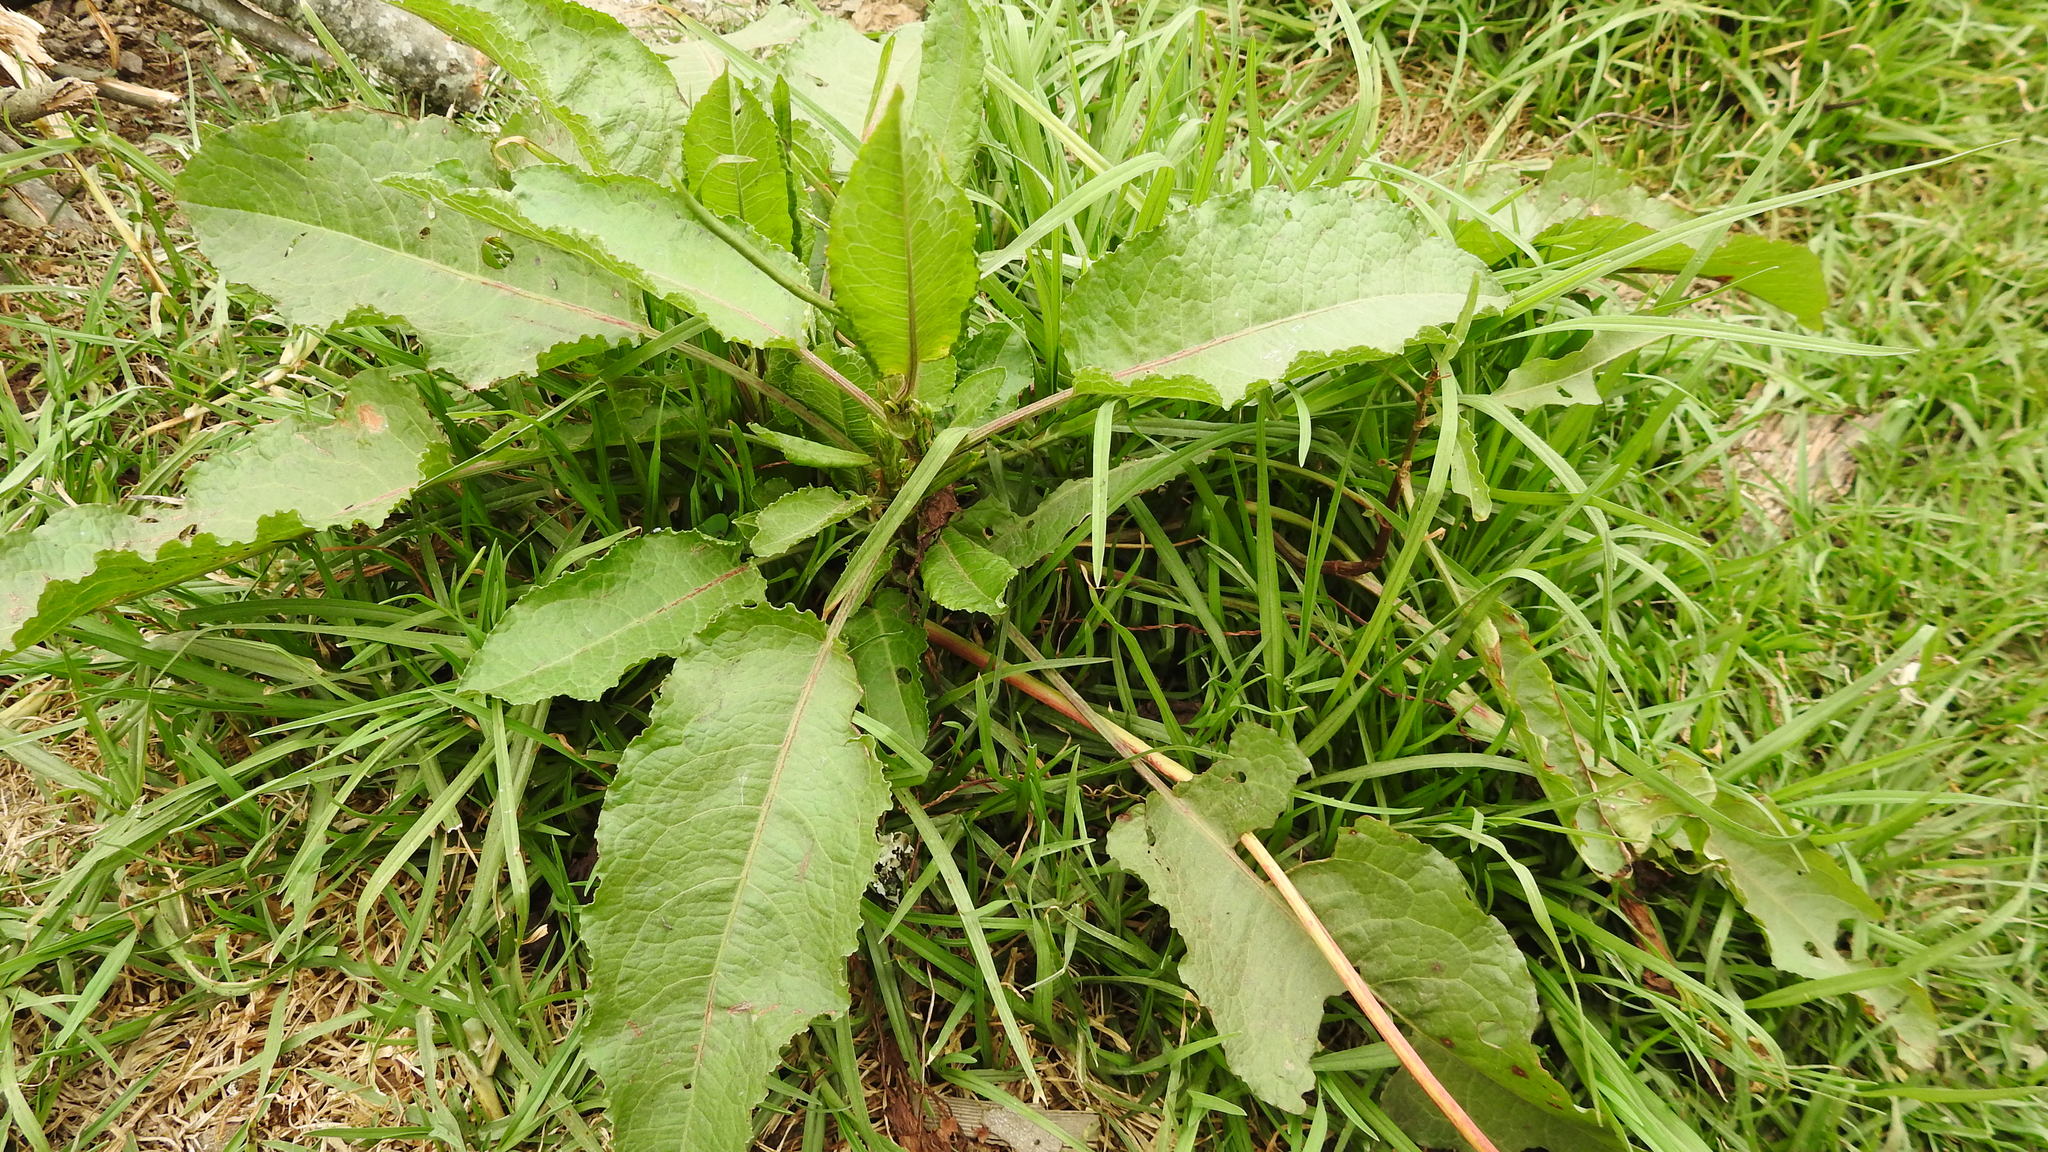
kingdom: Plantae
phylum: Tracheophyta
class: Magnoliopsida
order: Caryophyllales
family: Polygonaceae
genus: Rumex
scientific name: Rumex crispus
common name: Curled dock
